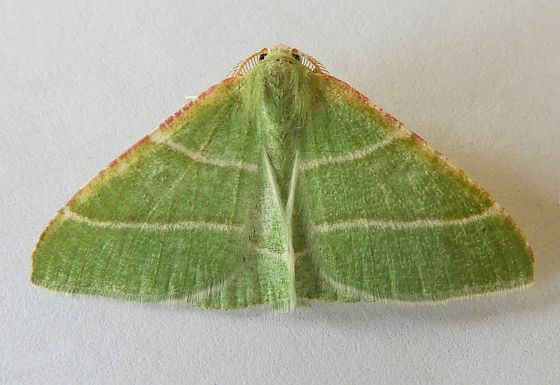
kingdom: Animalia
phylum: Arthropoda
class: Insecta
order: Lepidoptera
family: Geometridae
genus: Dichordophora
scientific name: Dichordophora phoenix
